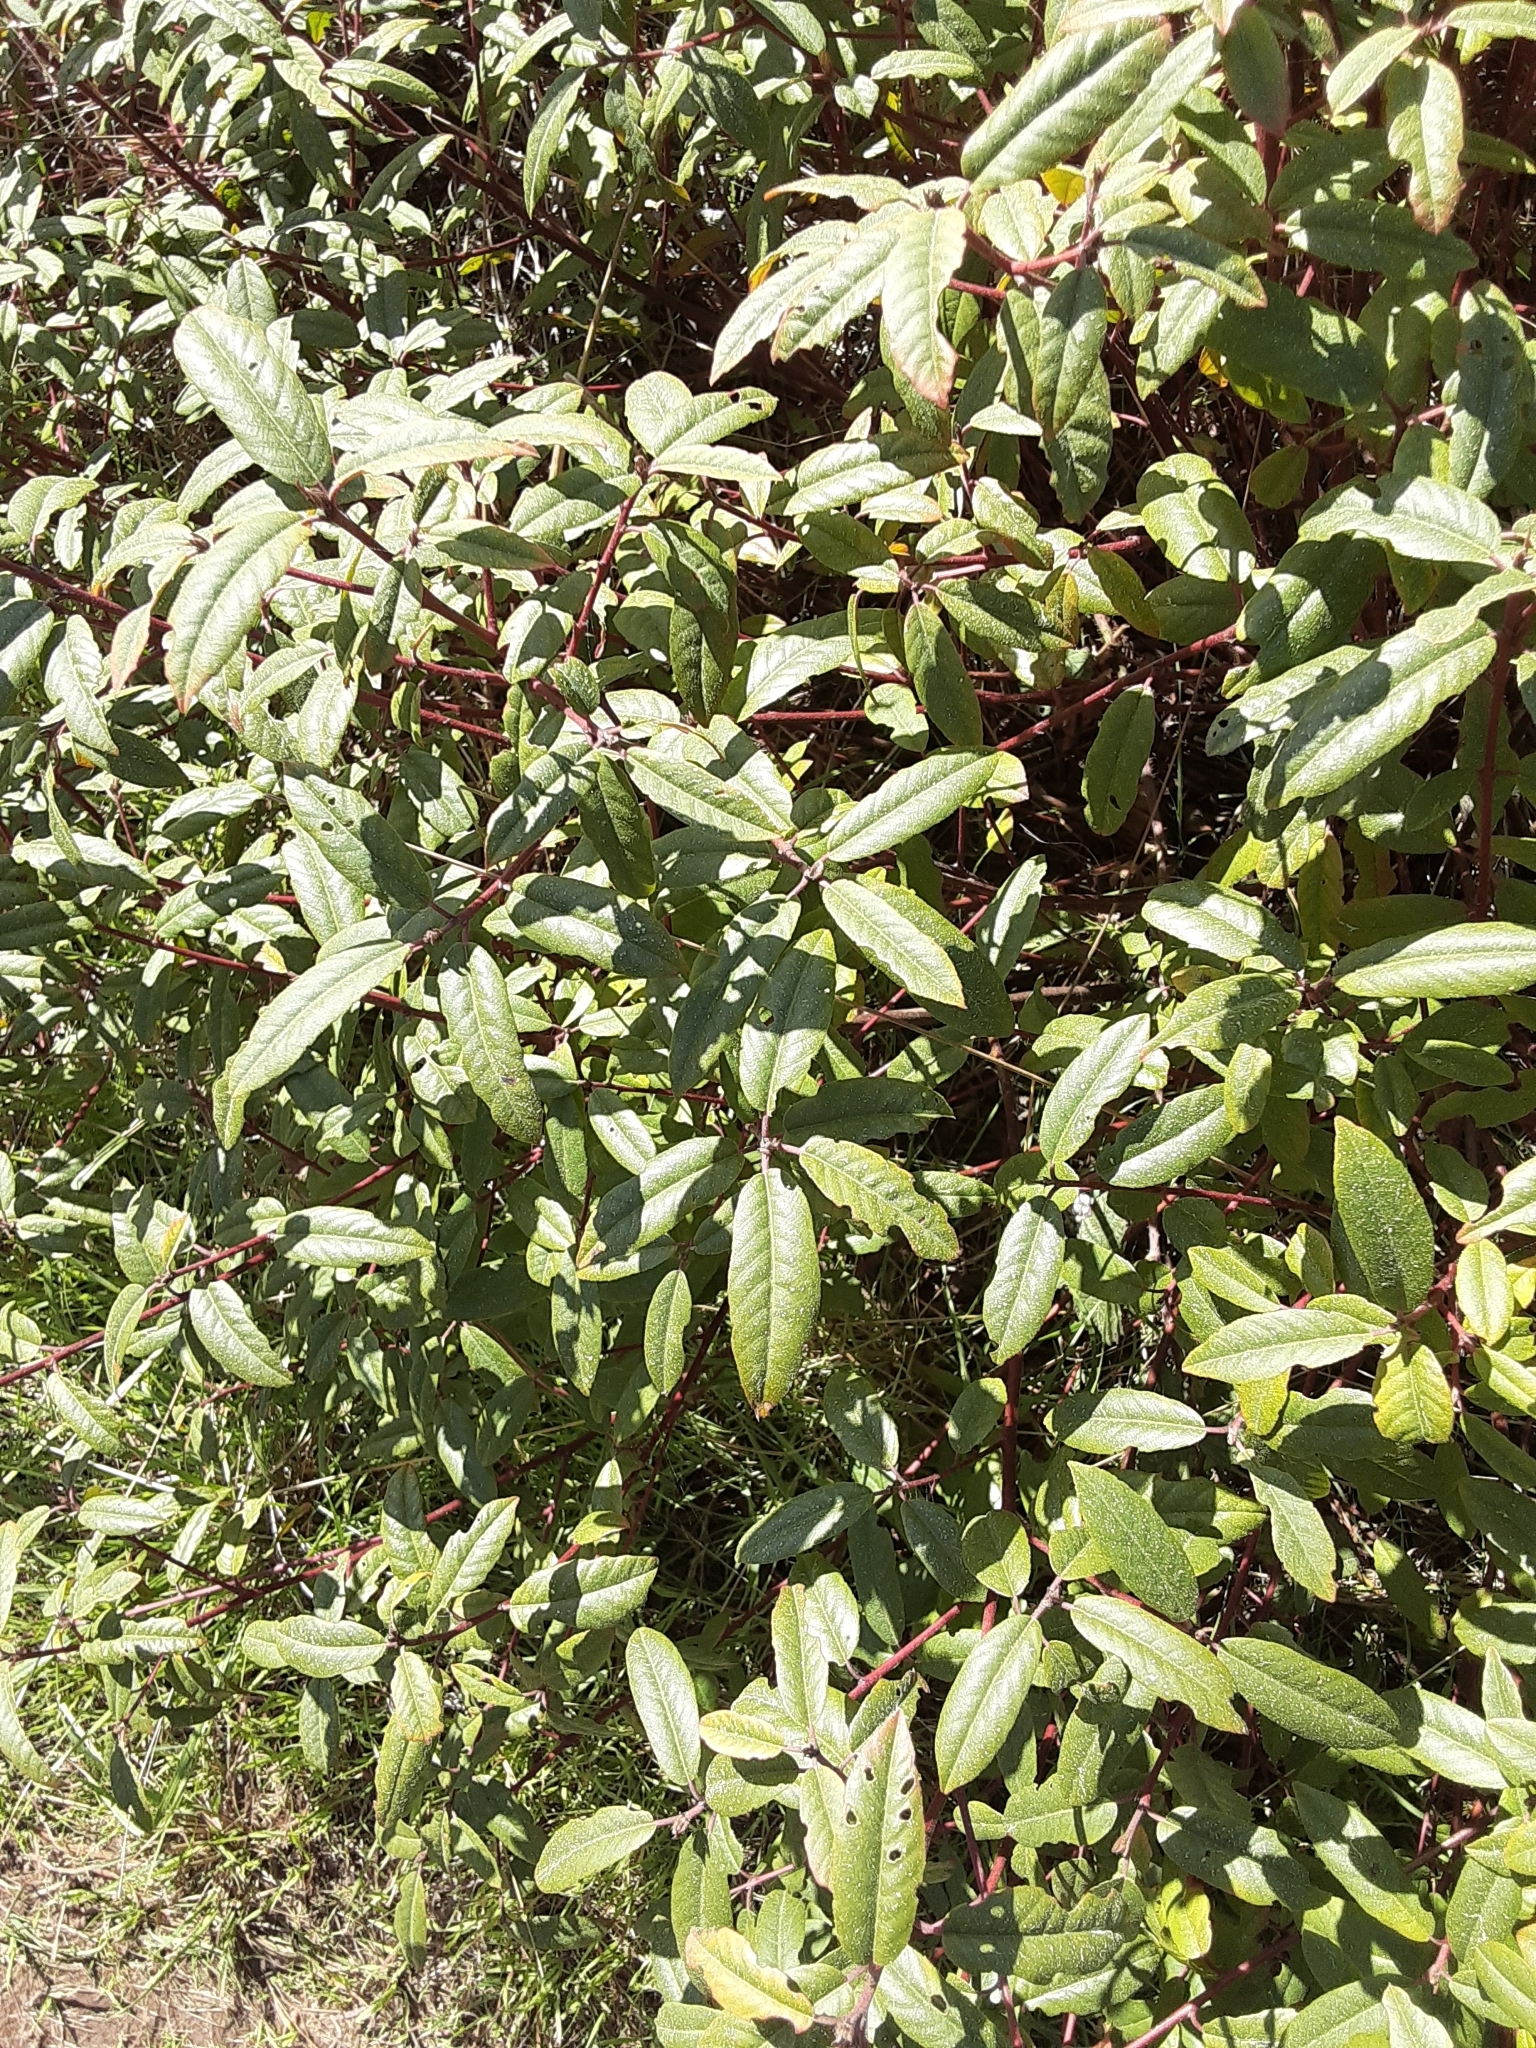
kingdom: Plantae
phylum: Tracheophyta
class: Magnoliopsida
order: Rosales
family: Rhamnaceae
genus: Frangula
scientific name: Frangula californica
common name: California buckthorn
